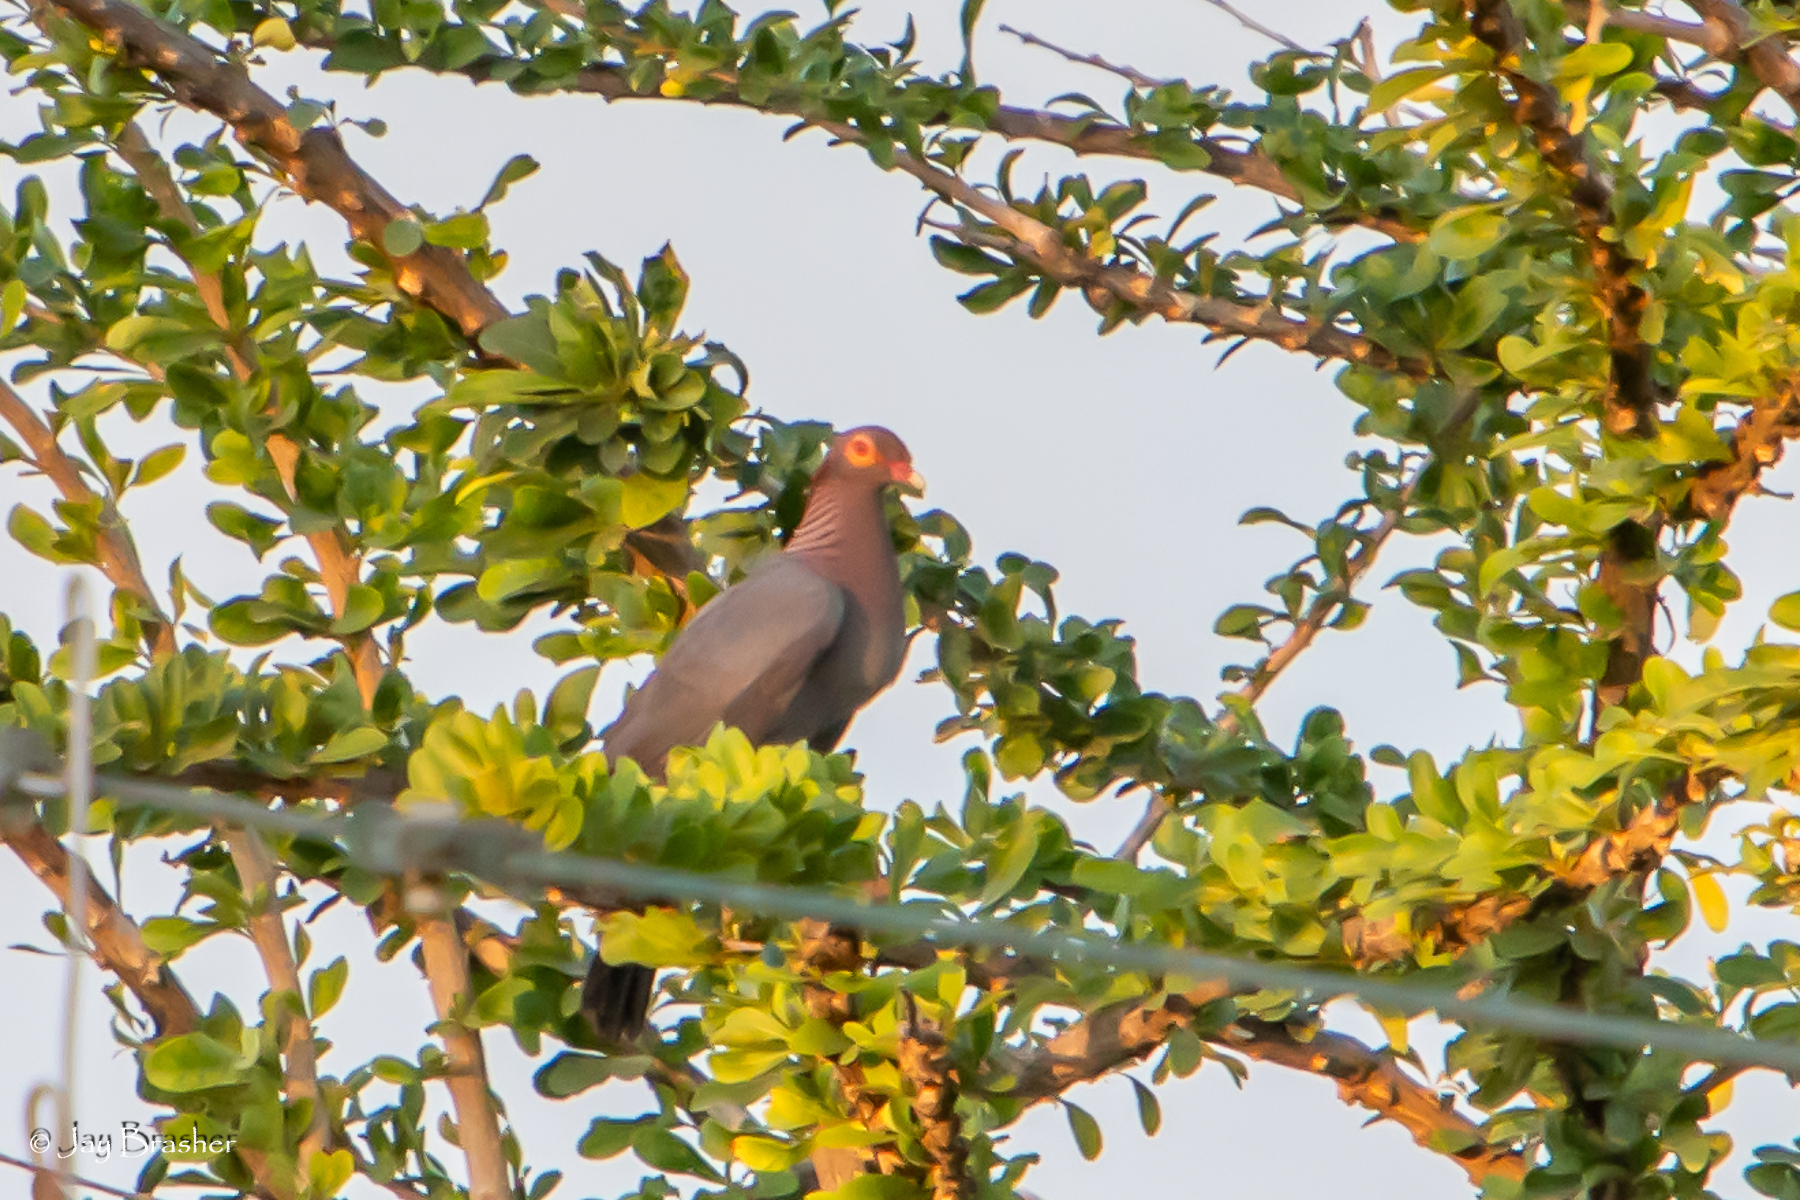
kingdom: Animalia
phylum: Chordata
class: Aves
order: Columbiformes
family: Columbidae
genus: Patagioenas
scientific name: Patagioenas squamosa
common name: Scaly-naped pigeon
